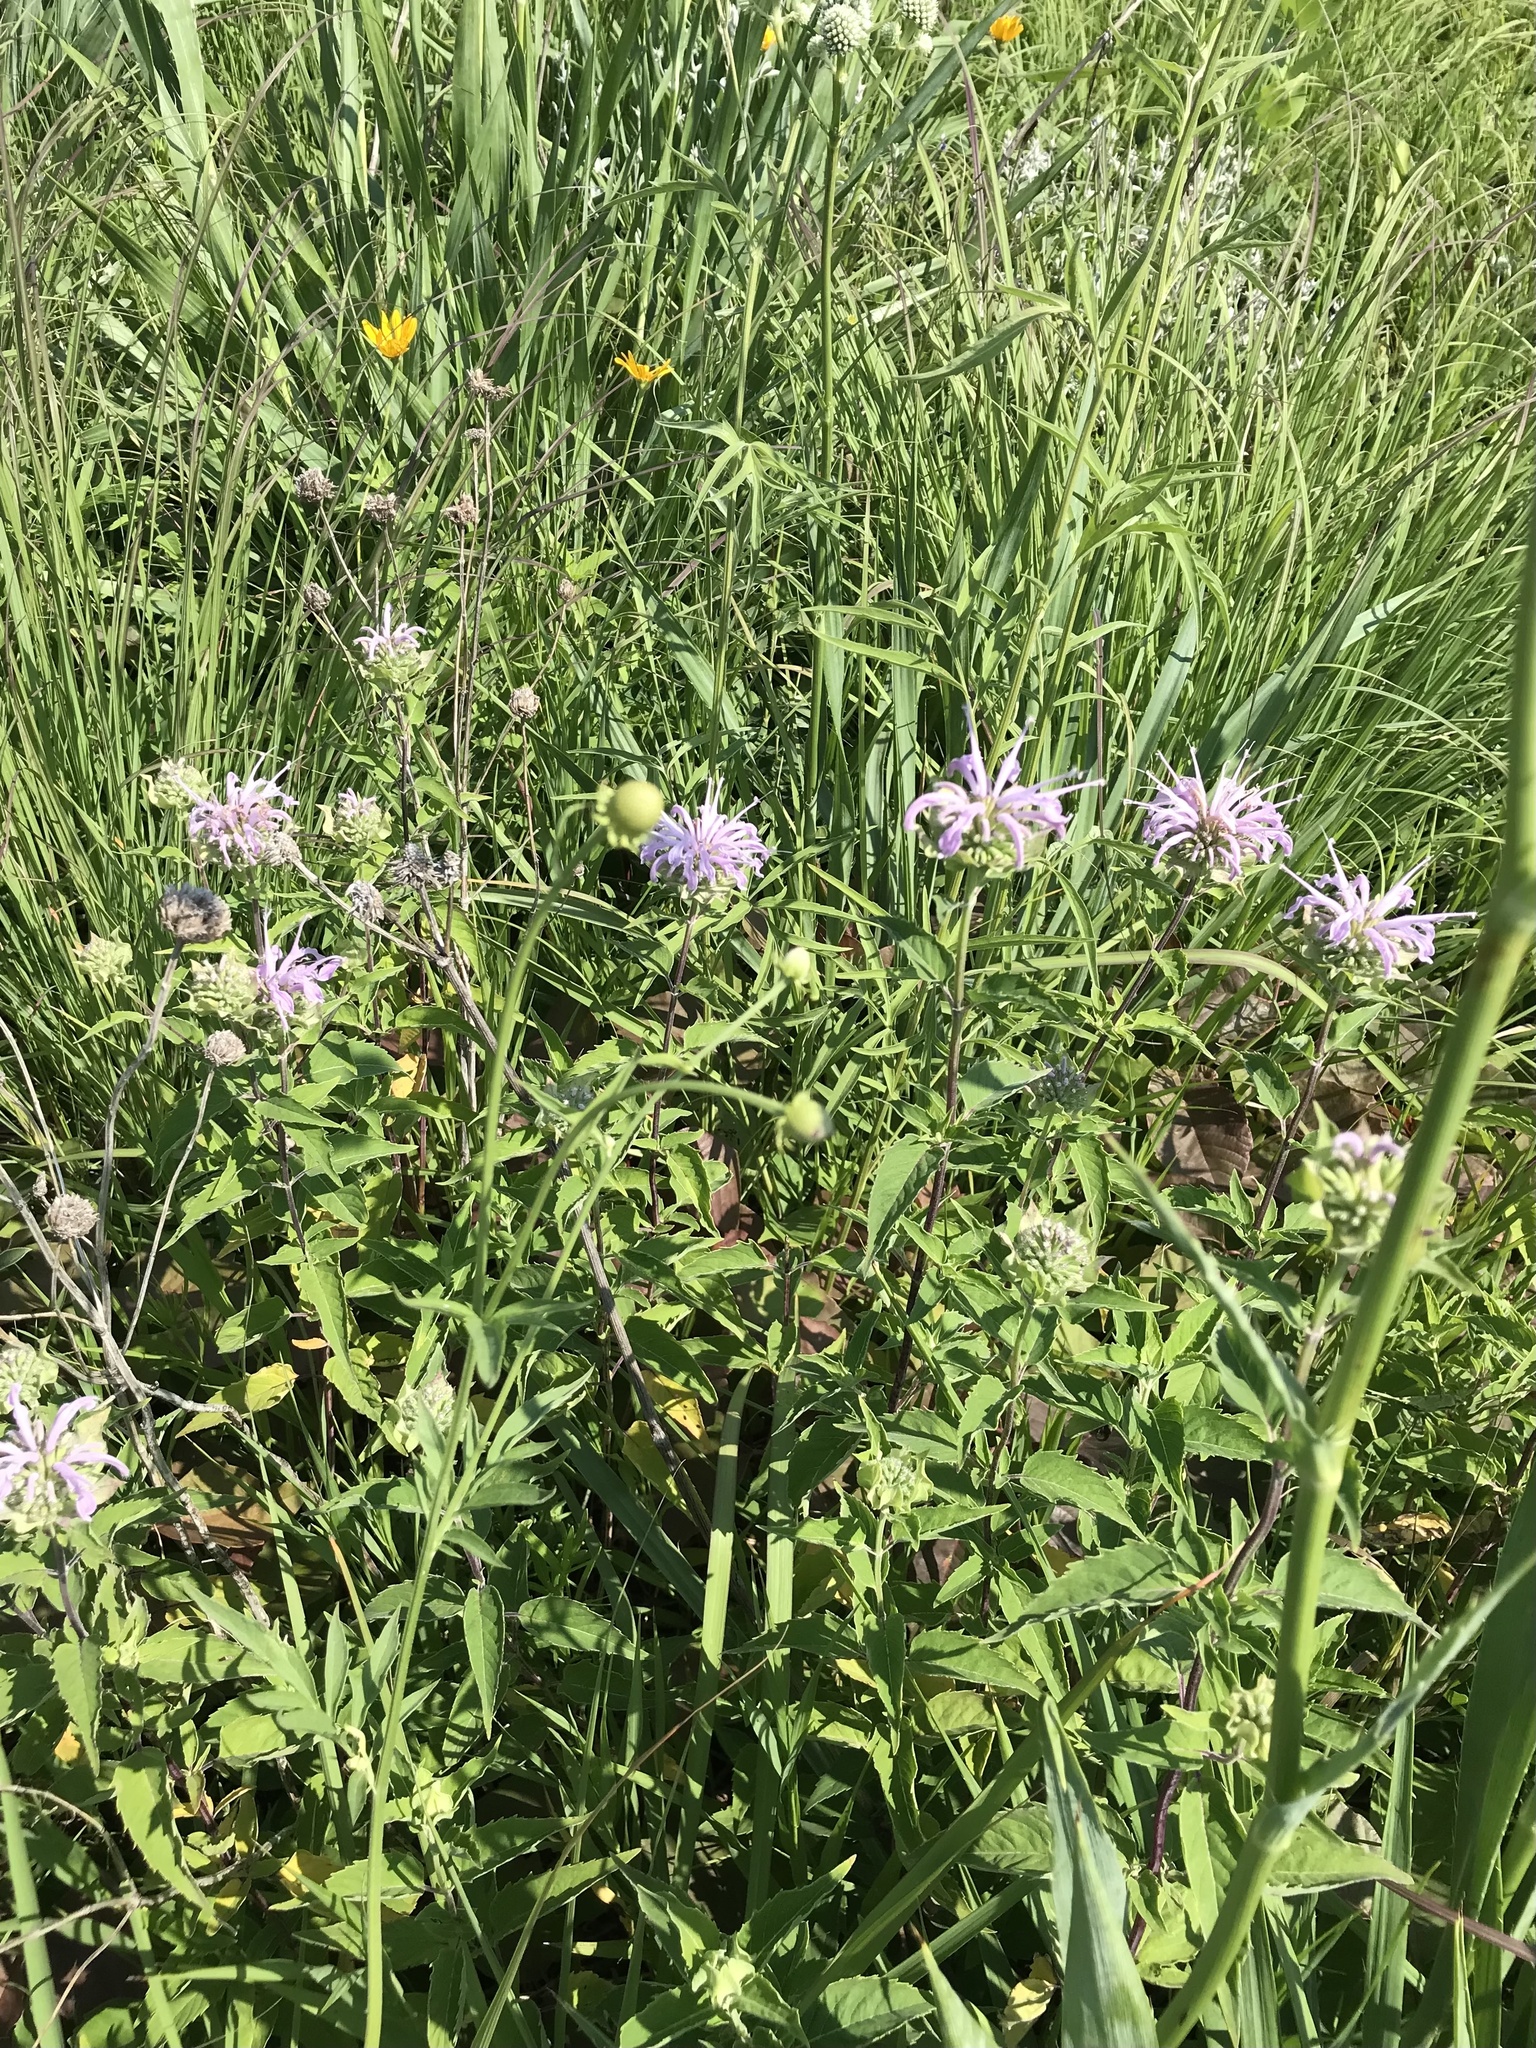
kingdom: Plantae
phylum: Tracheophyta
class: Magnoliopsida
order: Lamiales
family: Lamiaceae
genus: Monarda
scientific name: Monarda fistulosa
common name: Purple beebalm
